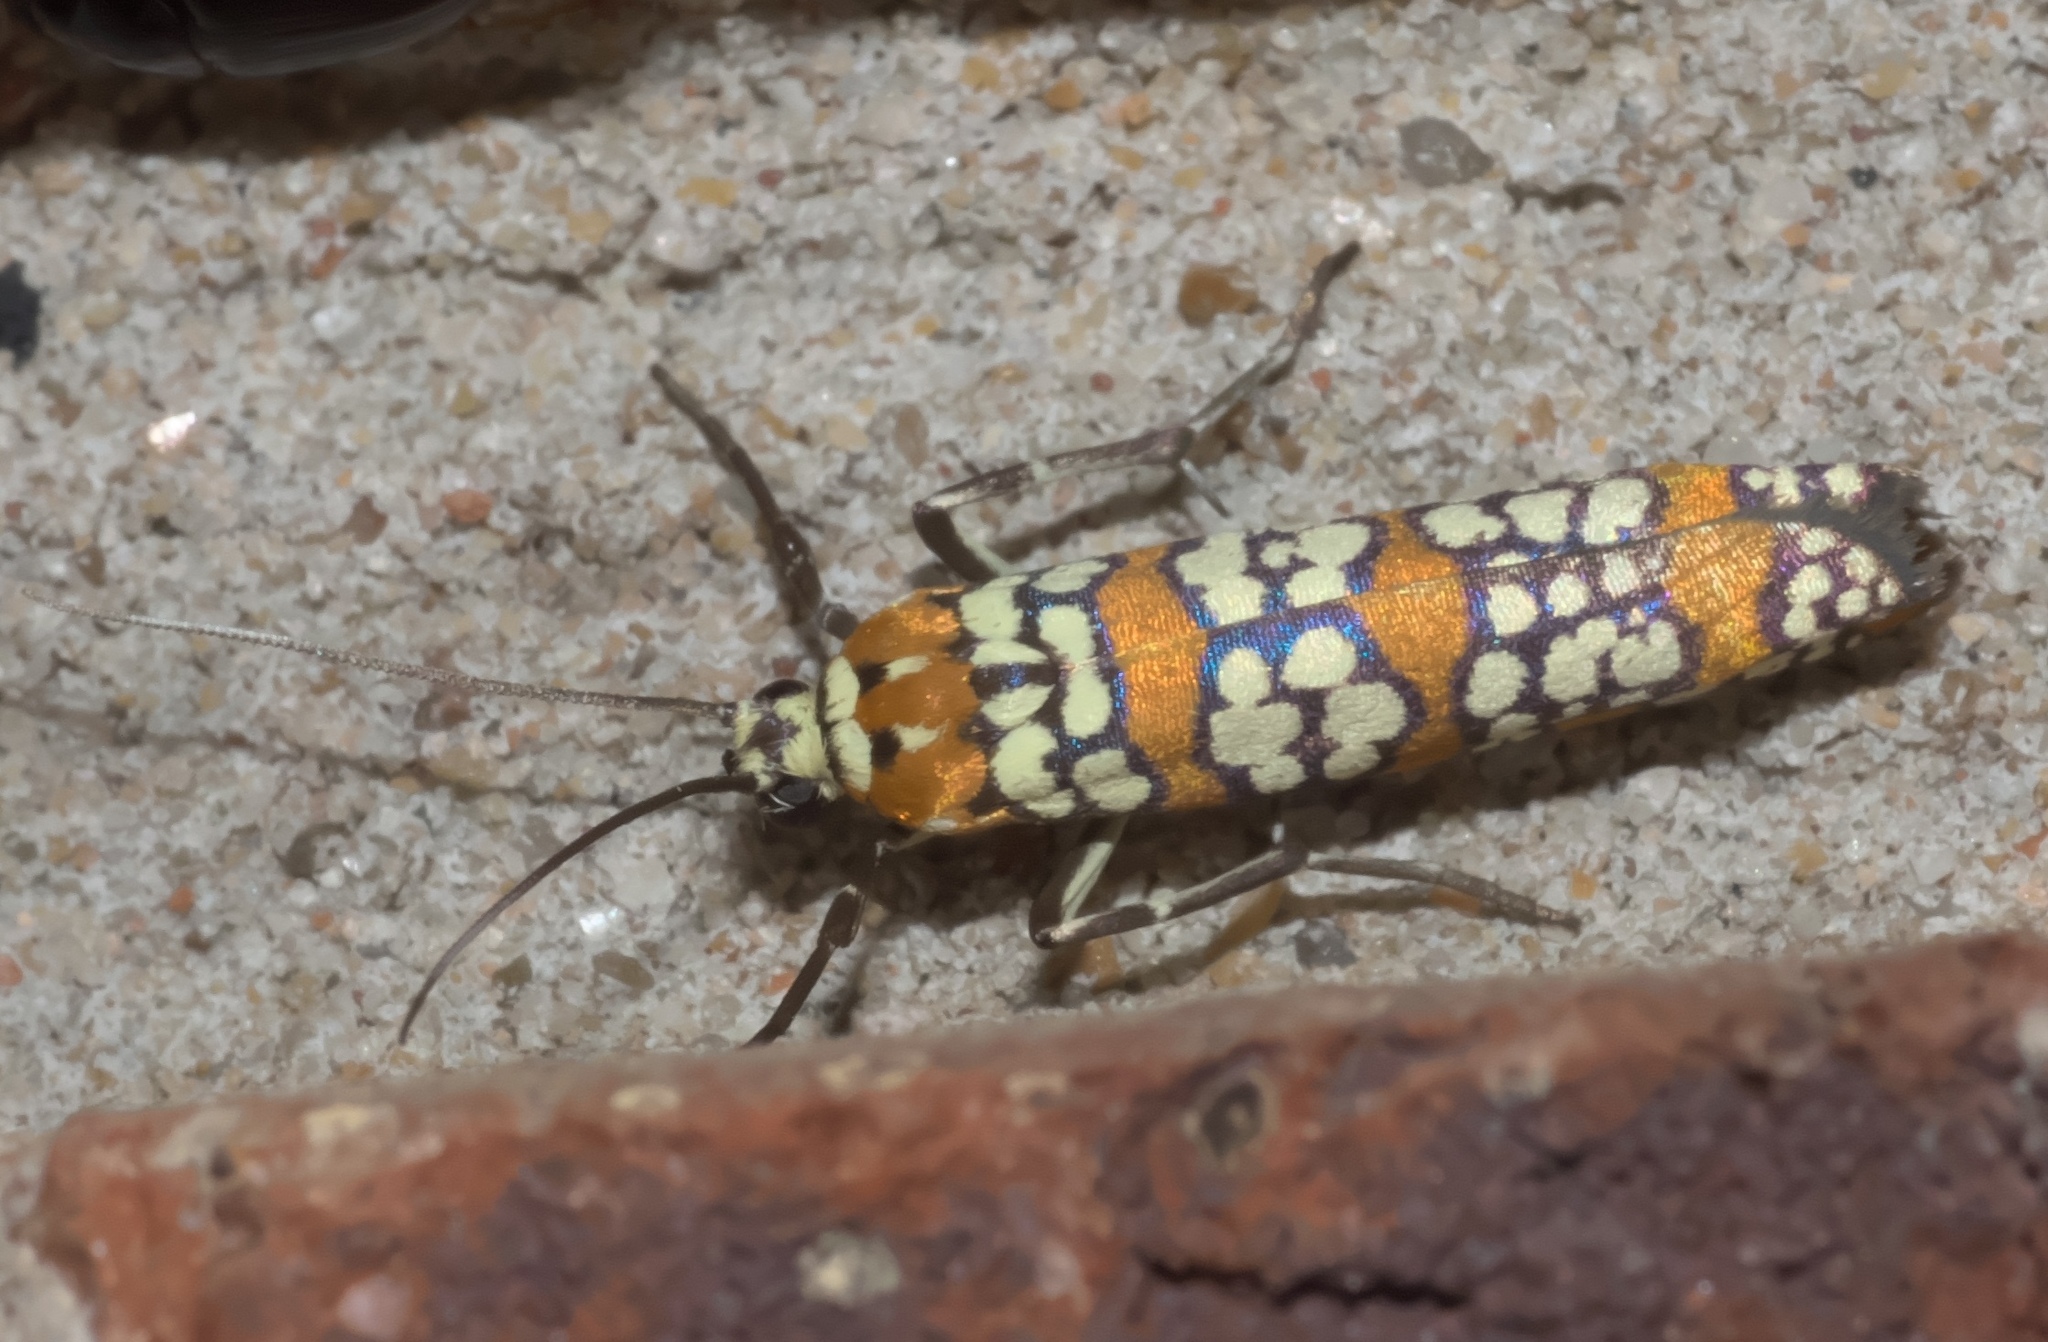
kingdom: Animalia
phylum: Arthropoda
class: Insecta
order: Lepidoptera
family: Attevidae
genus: Atteva
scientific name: Atteva punctella
